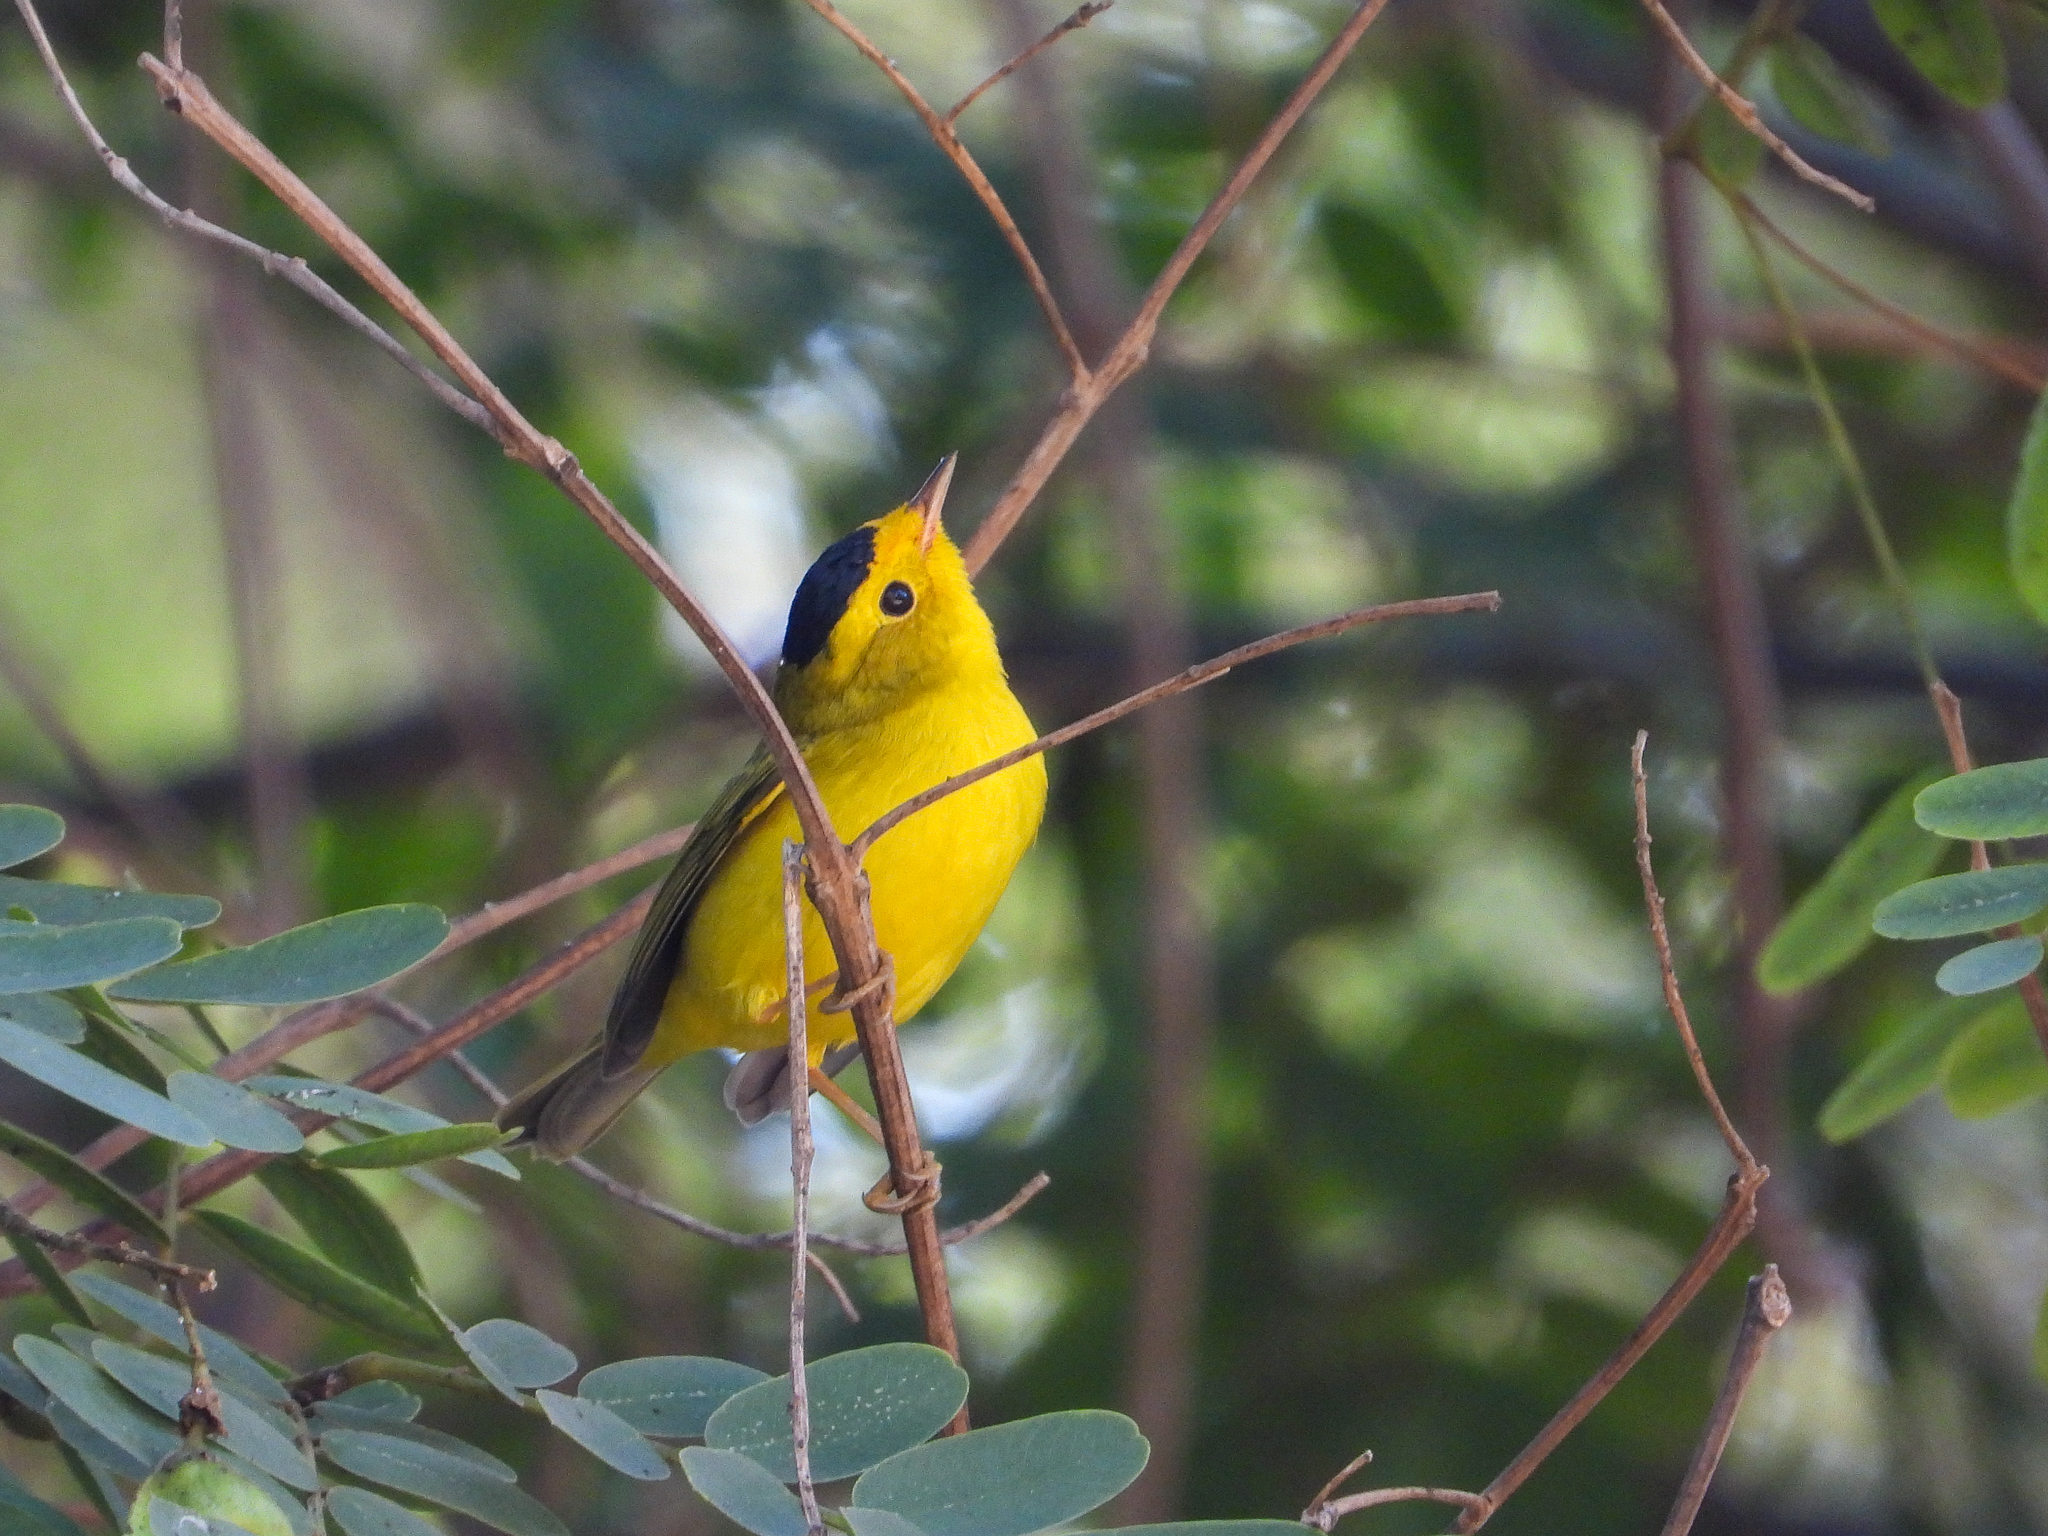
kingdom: Animalia
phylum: Chordata
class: Aves
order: Passeriformes
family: Parulidae
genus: Cardellina
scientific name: Cardellina pusilla
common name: Wilson's warbler
